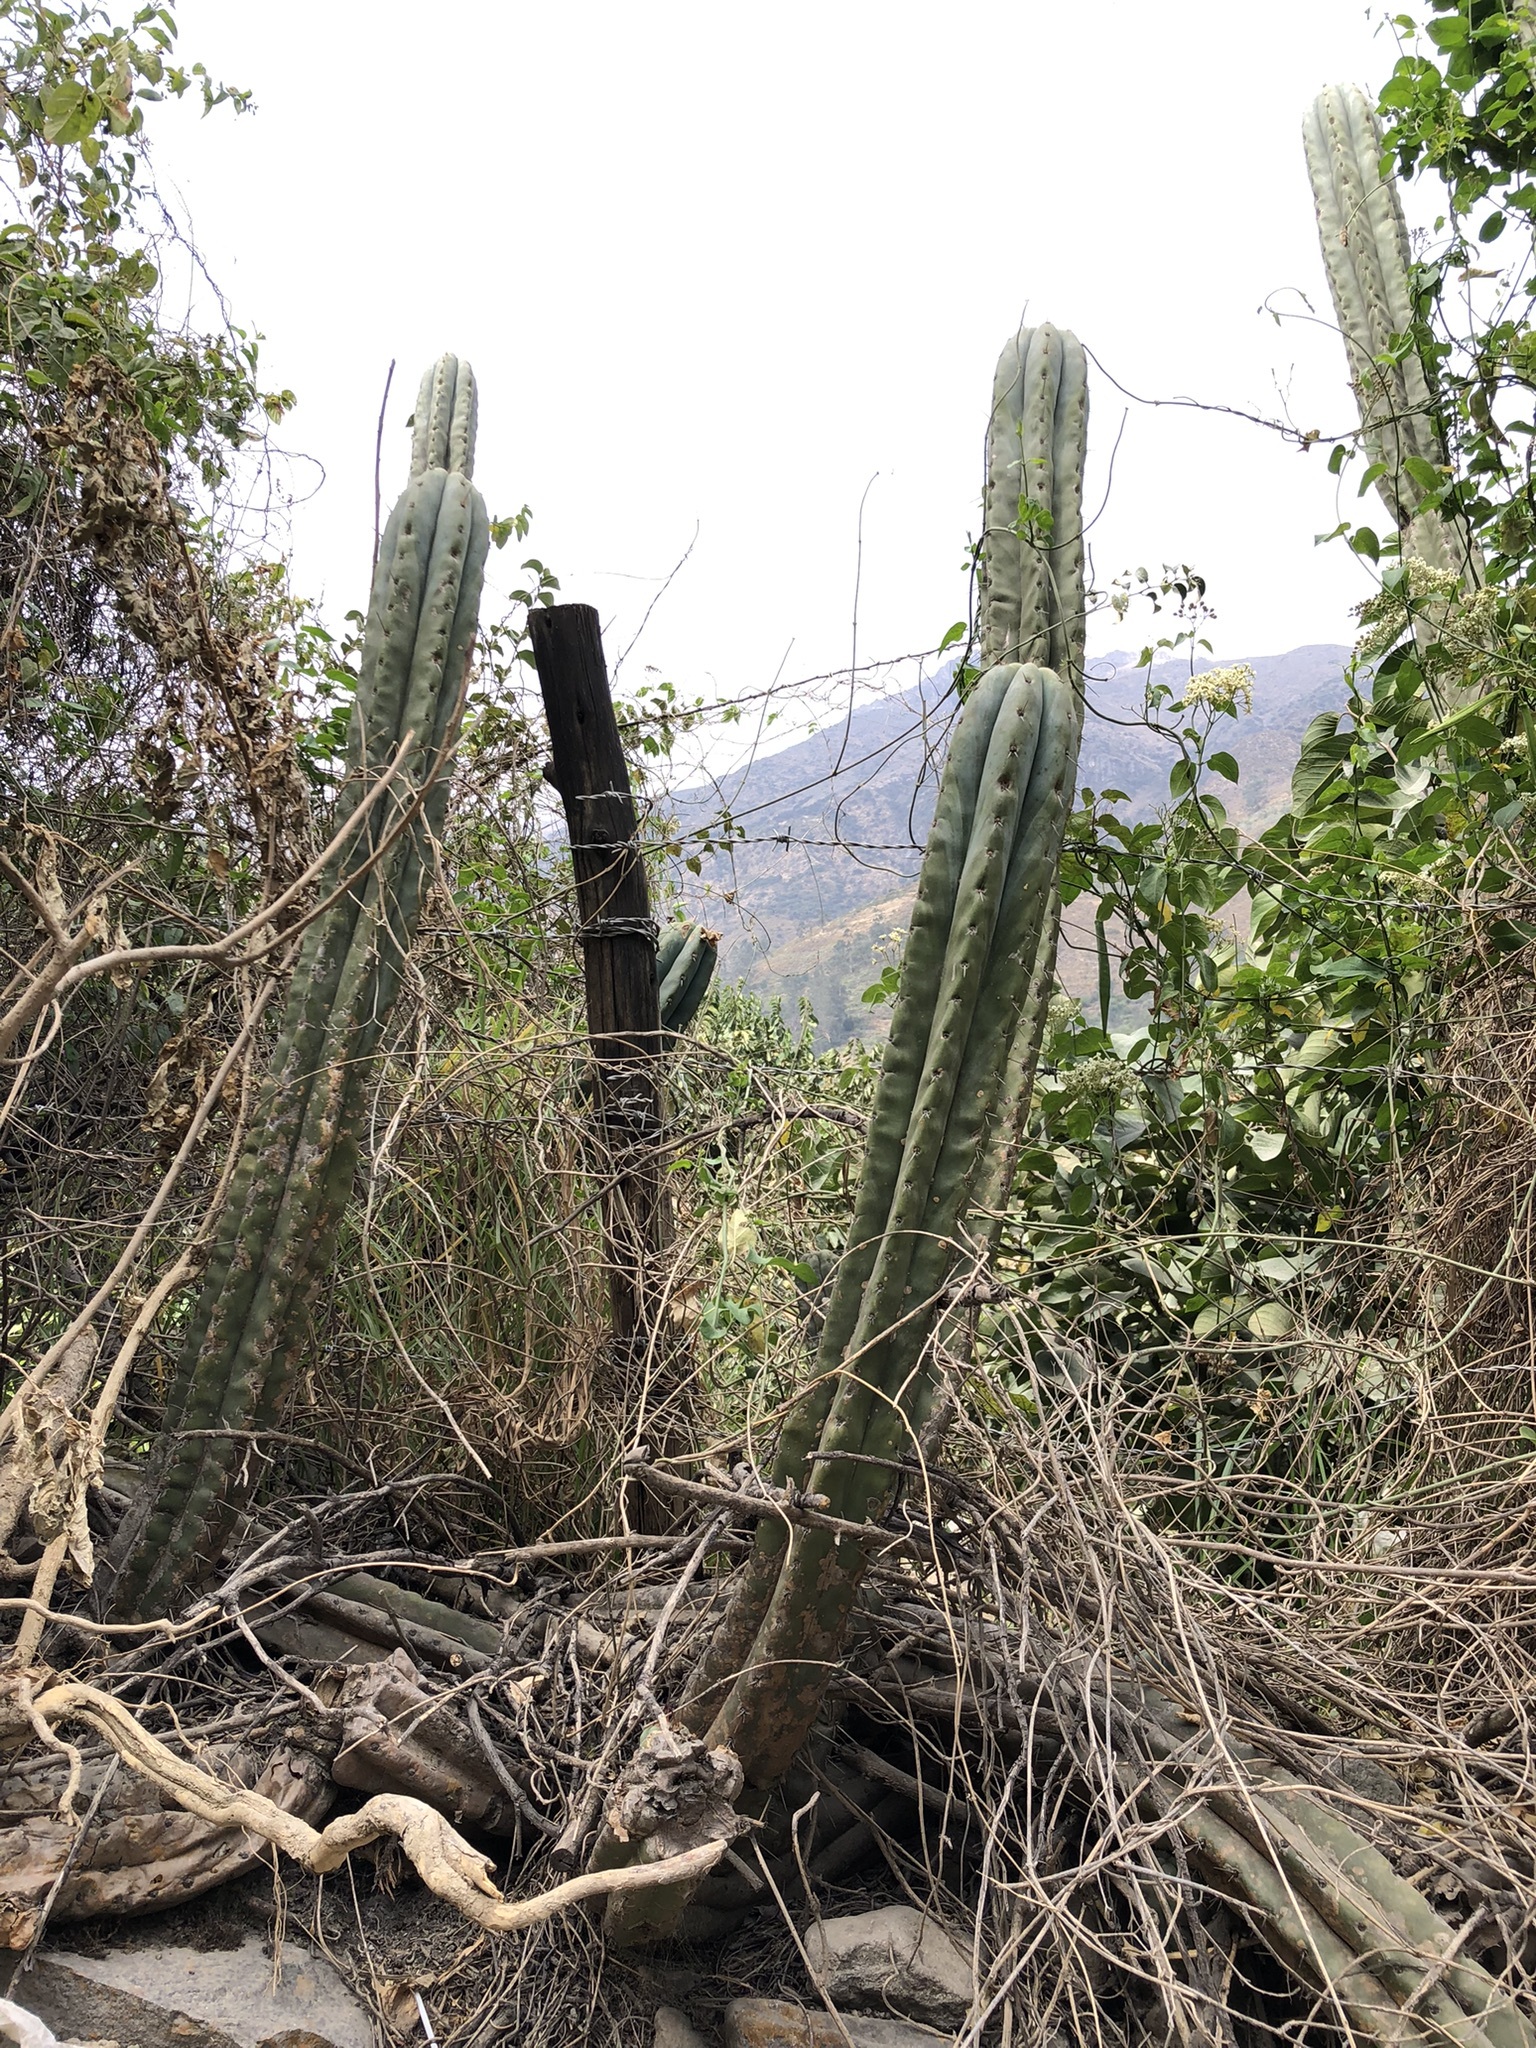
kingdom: Plantae
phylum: Tracheophyta
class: Magnoliopsida
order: Caryophyllales
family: Cactaceae
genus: Trichocereus
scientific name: Trichocereus macrogonus
